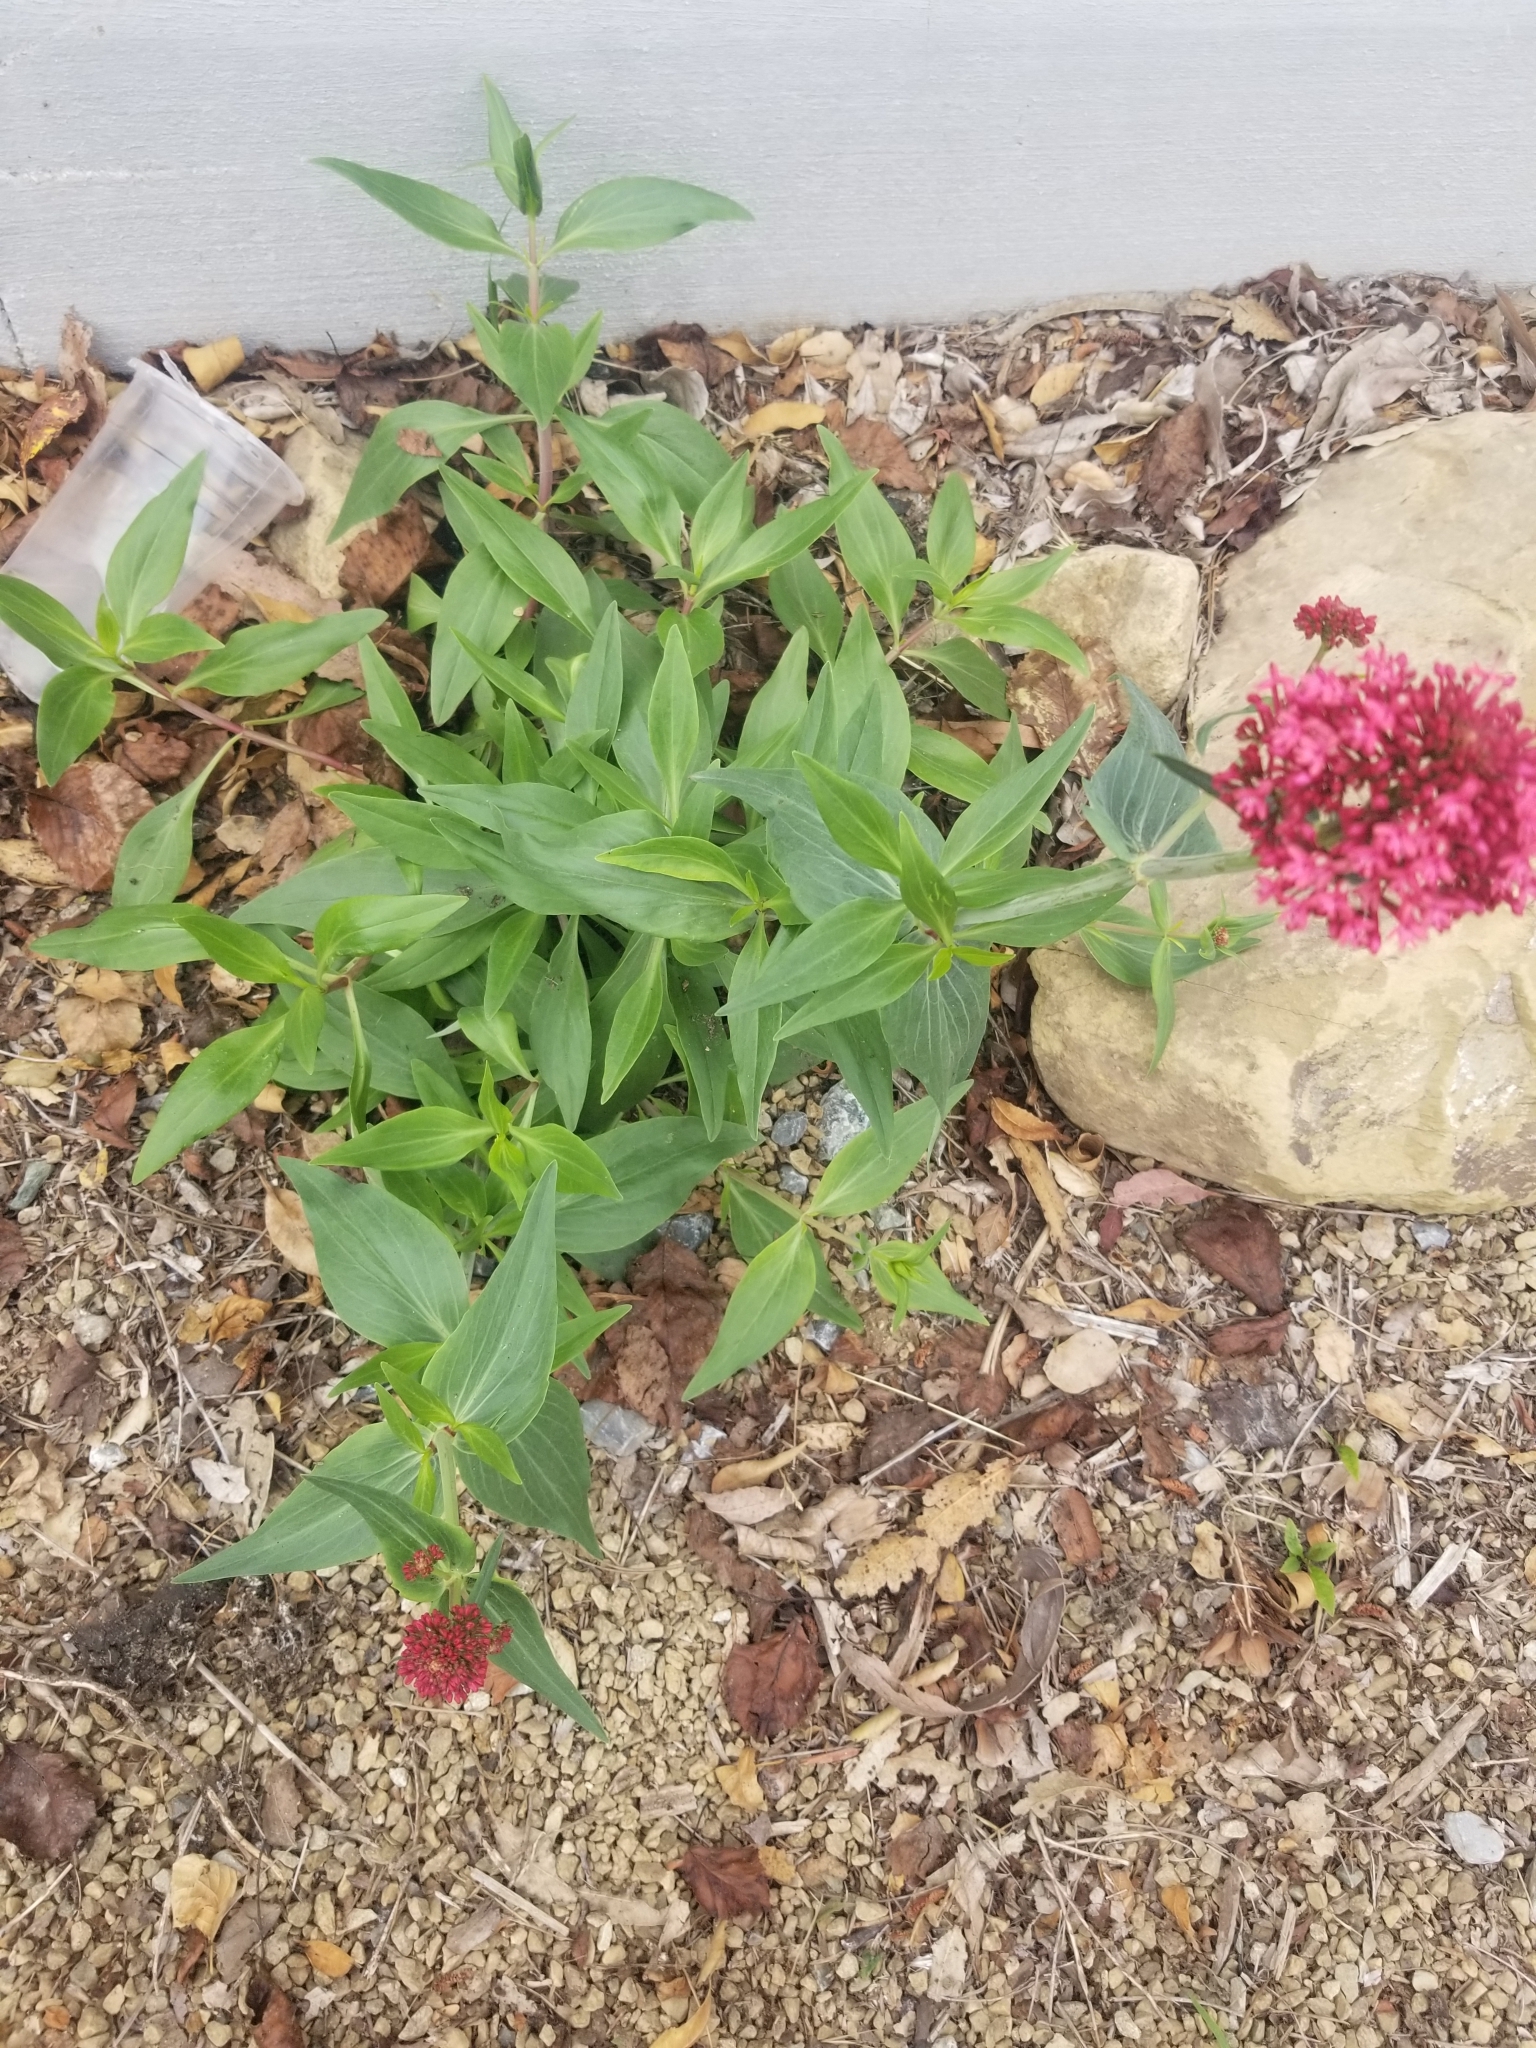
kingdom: Plantae
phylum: Tracheophyta
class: Magnoliopsida
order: Dipsacales
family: Caprifoliaceae
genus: Centranthus
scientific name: Centranthus ruber
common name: Red valerian
